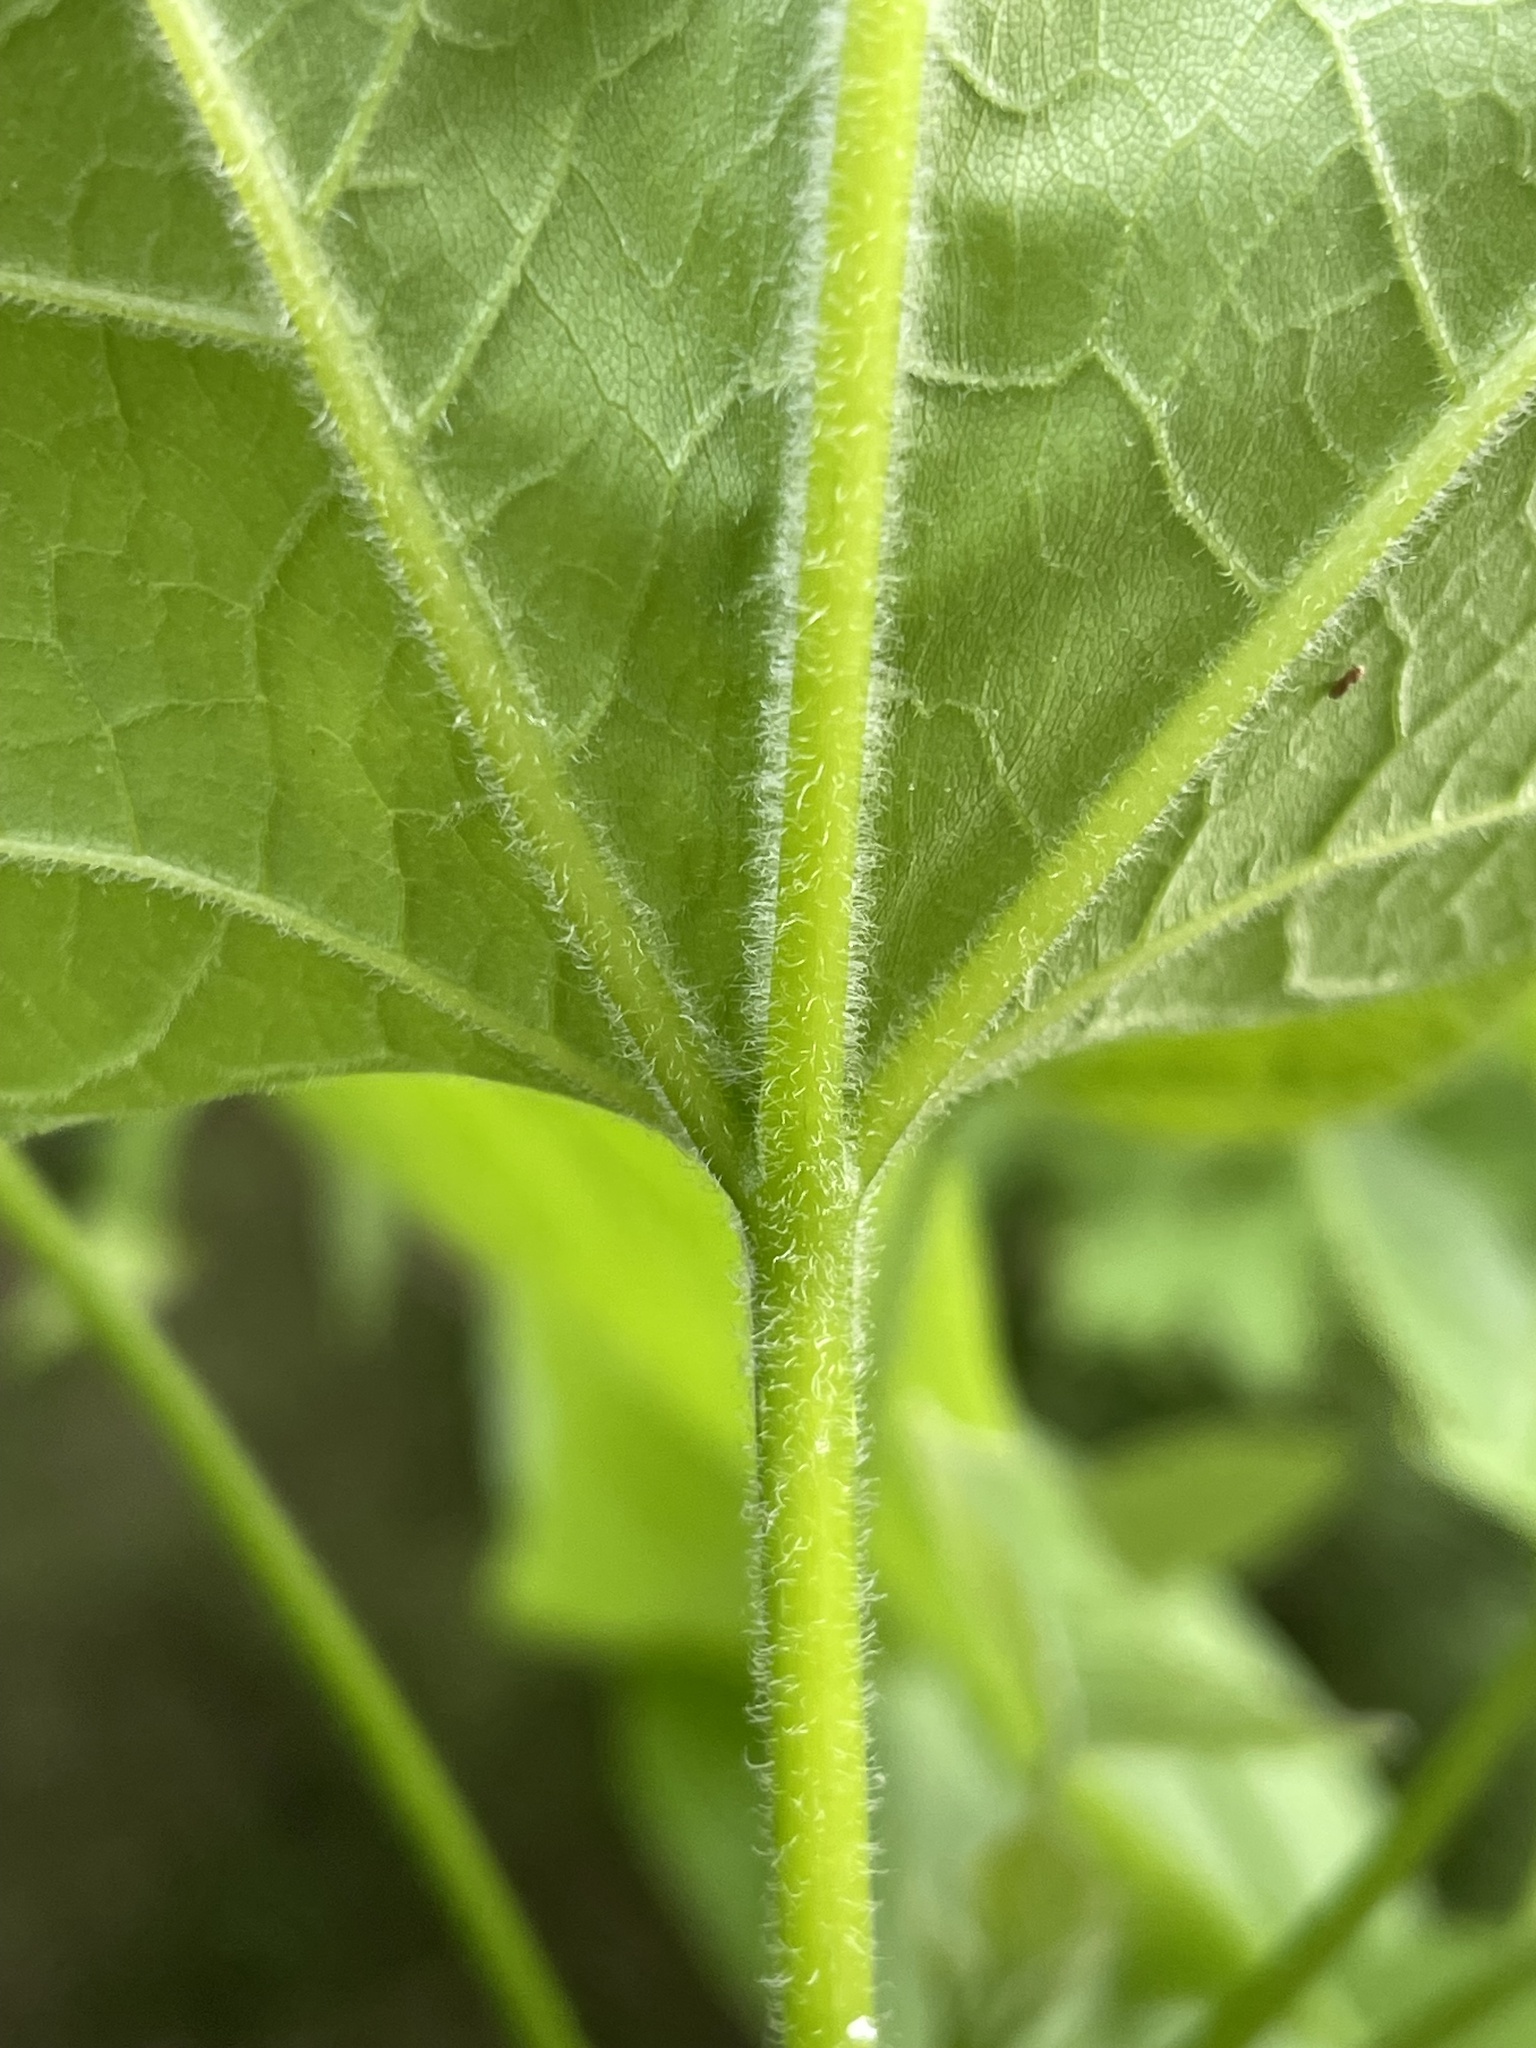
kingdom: Plantae
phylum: Tracheophyta
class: Magnoliopsida
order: Lamiales
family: Bignoniaceae
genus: Catalpa
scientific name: Catalpa speciosa
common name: Northern catalpa
